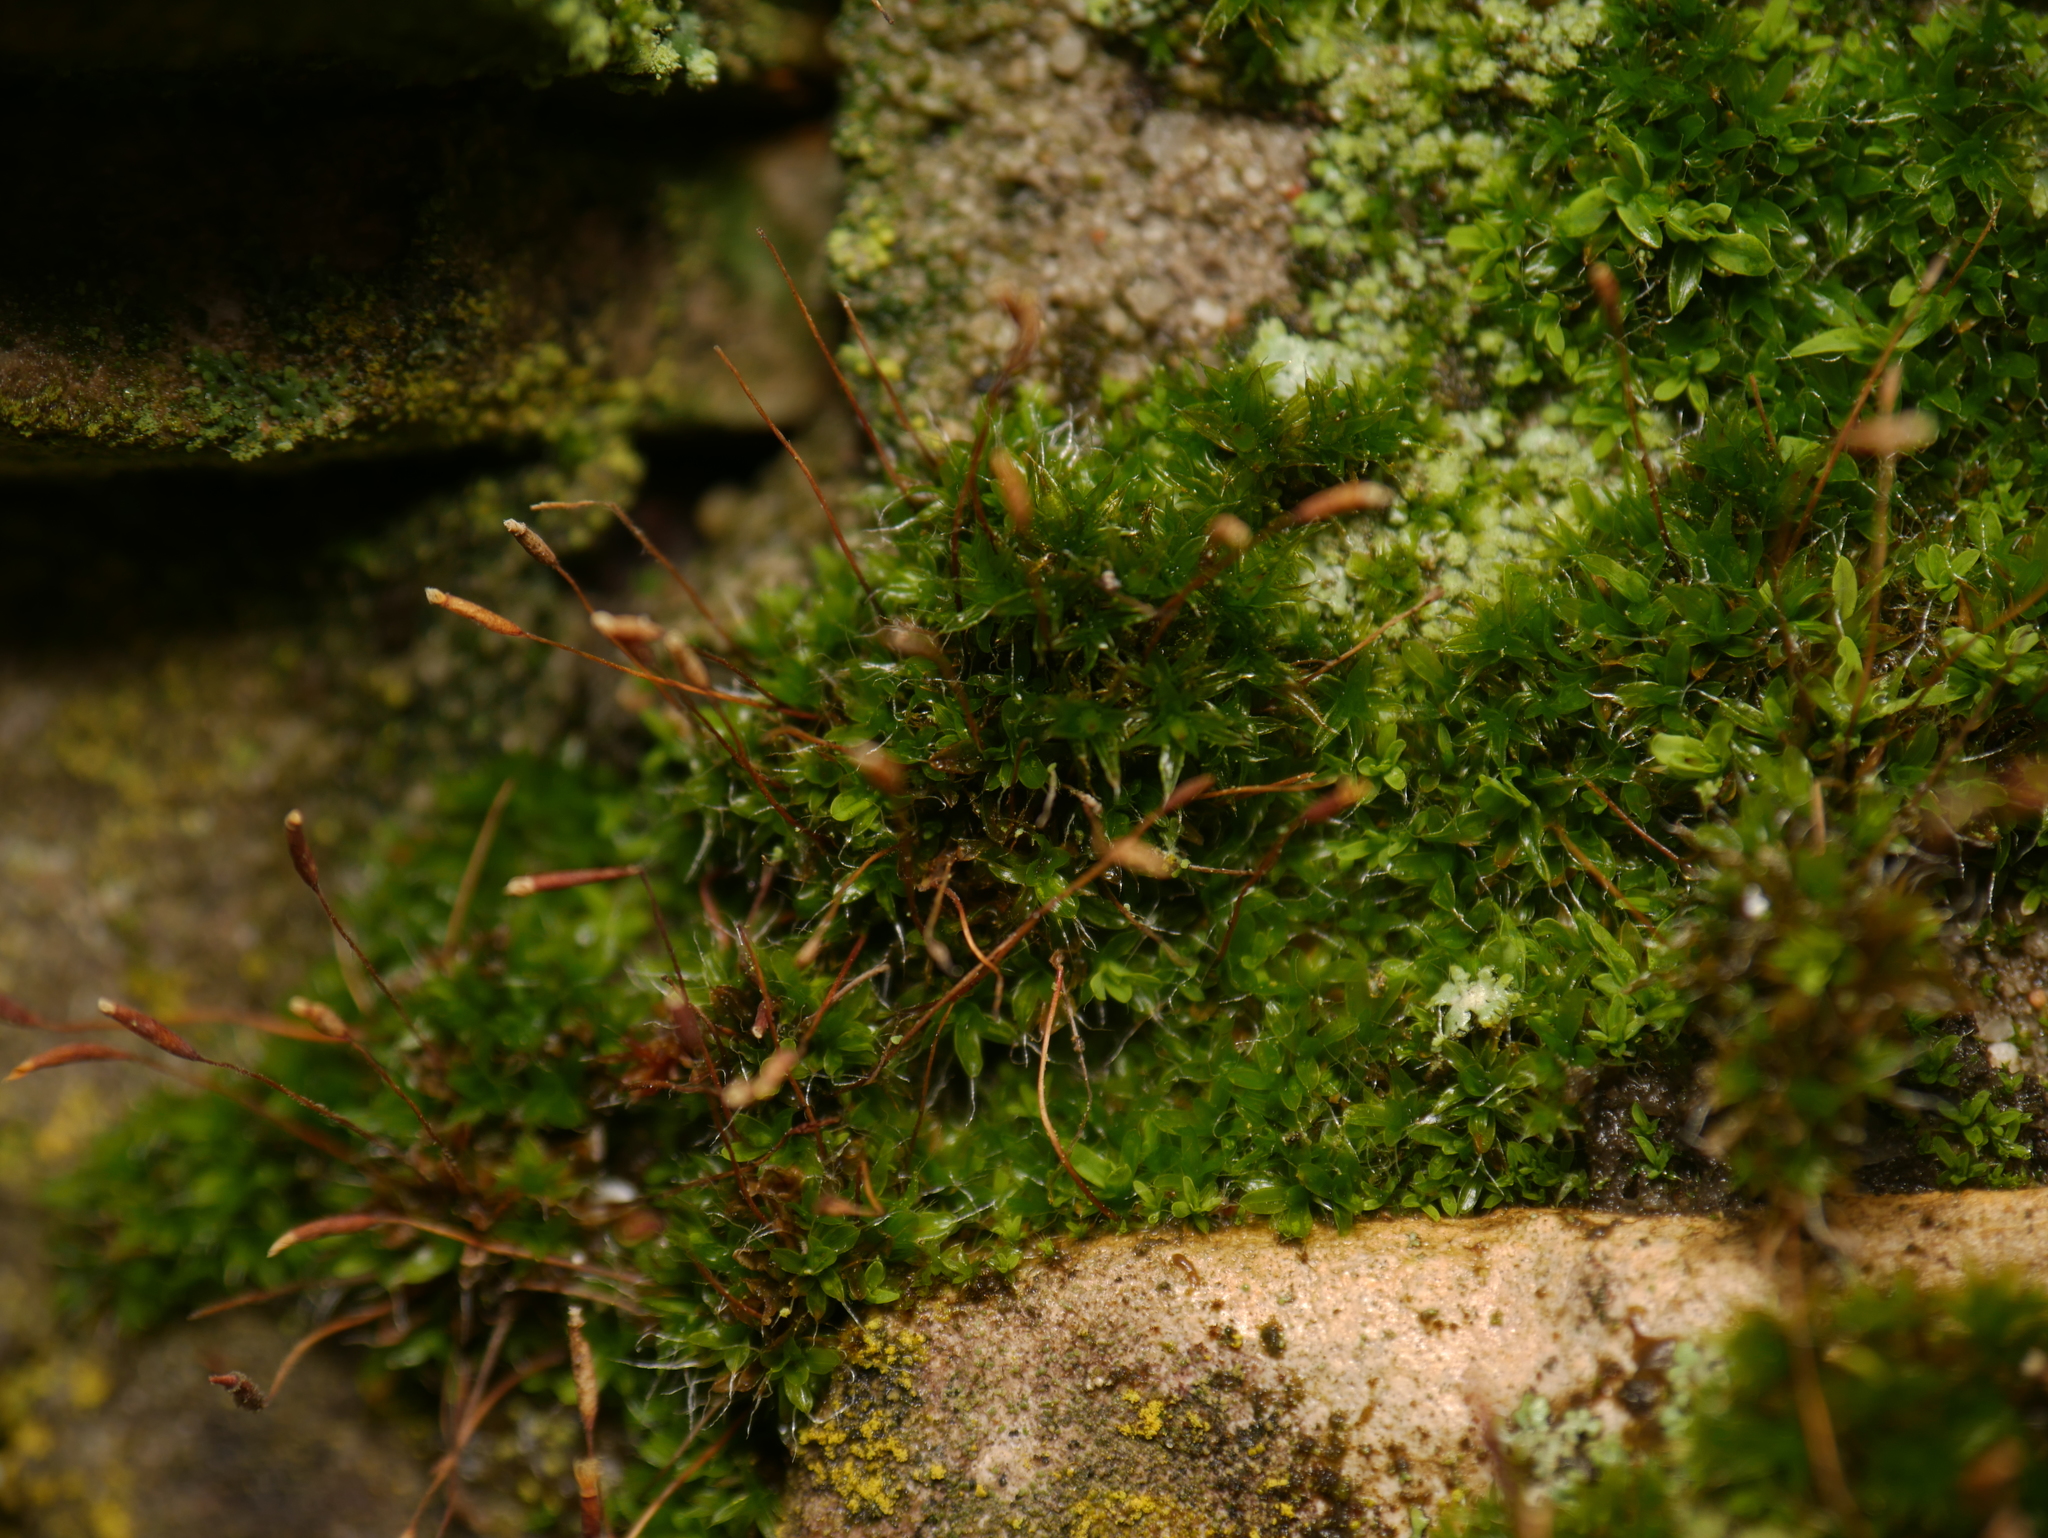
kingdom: Plantae
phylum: Bryophyta
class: Bryopsida
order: Pottiales
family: Pottiaceae
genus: Tortula
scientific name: Tortula muralis
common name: Wall screw-moss
